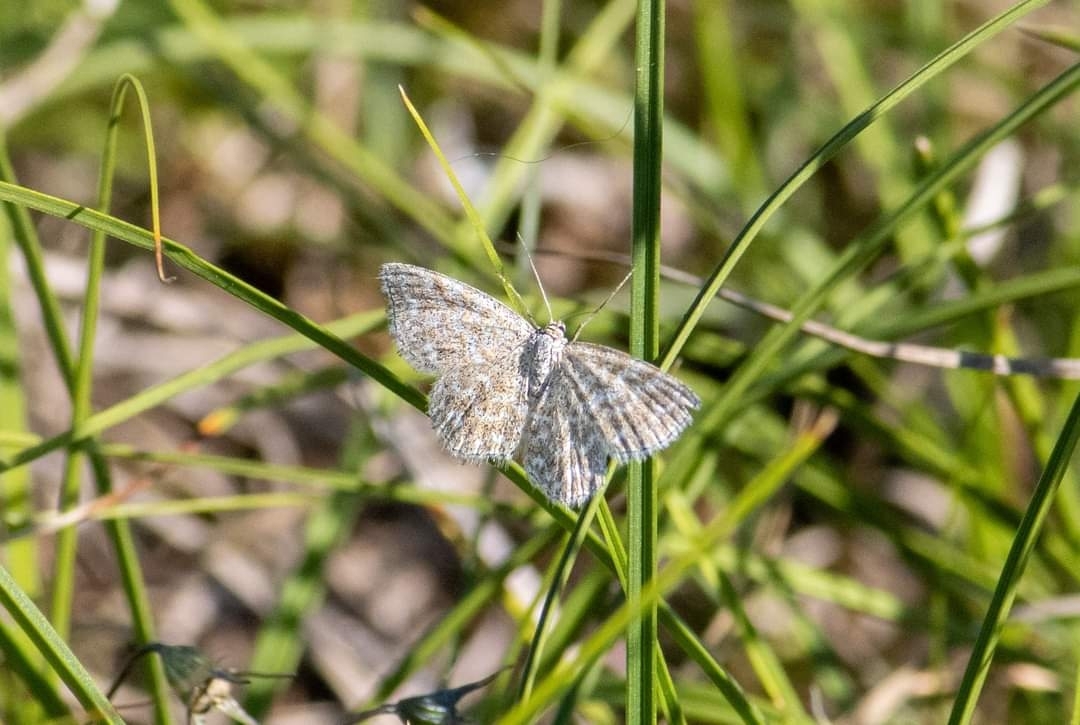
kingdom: Animalia
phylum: Arthropoda
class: Insecta
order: Lepidoptera
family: Geometridae
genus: Scopula
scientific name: Scopula immorata
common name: Lewes wave
